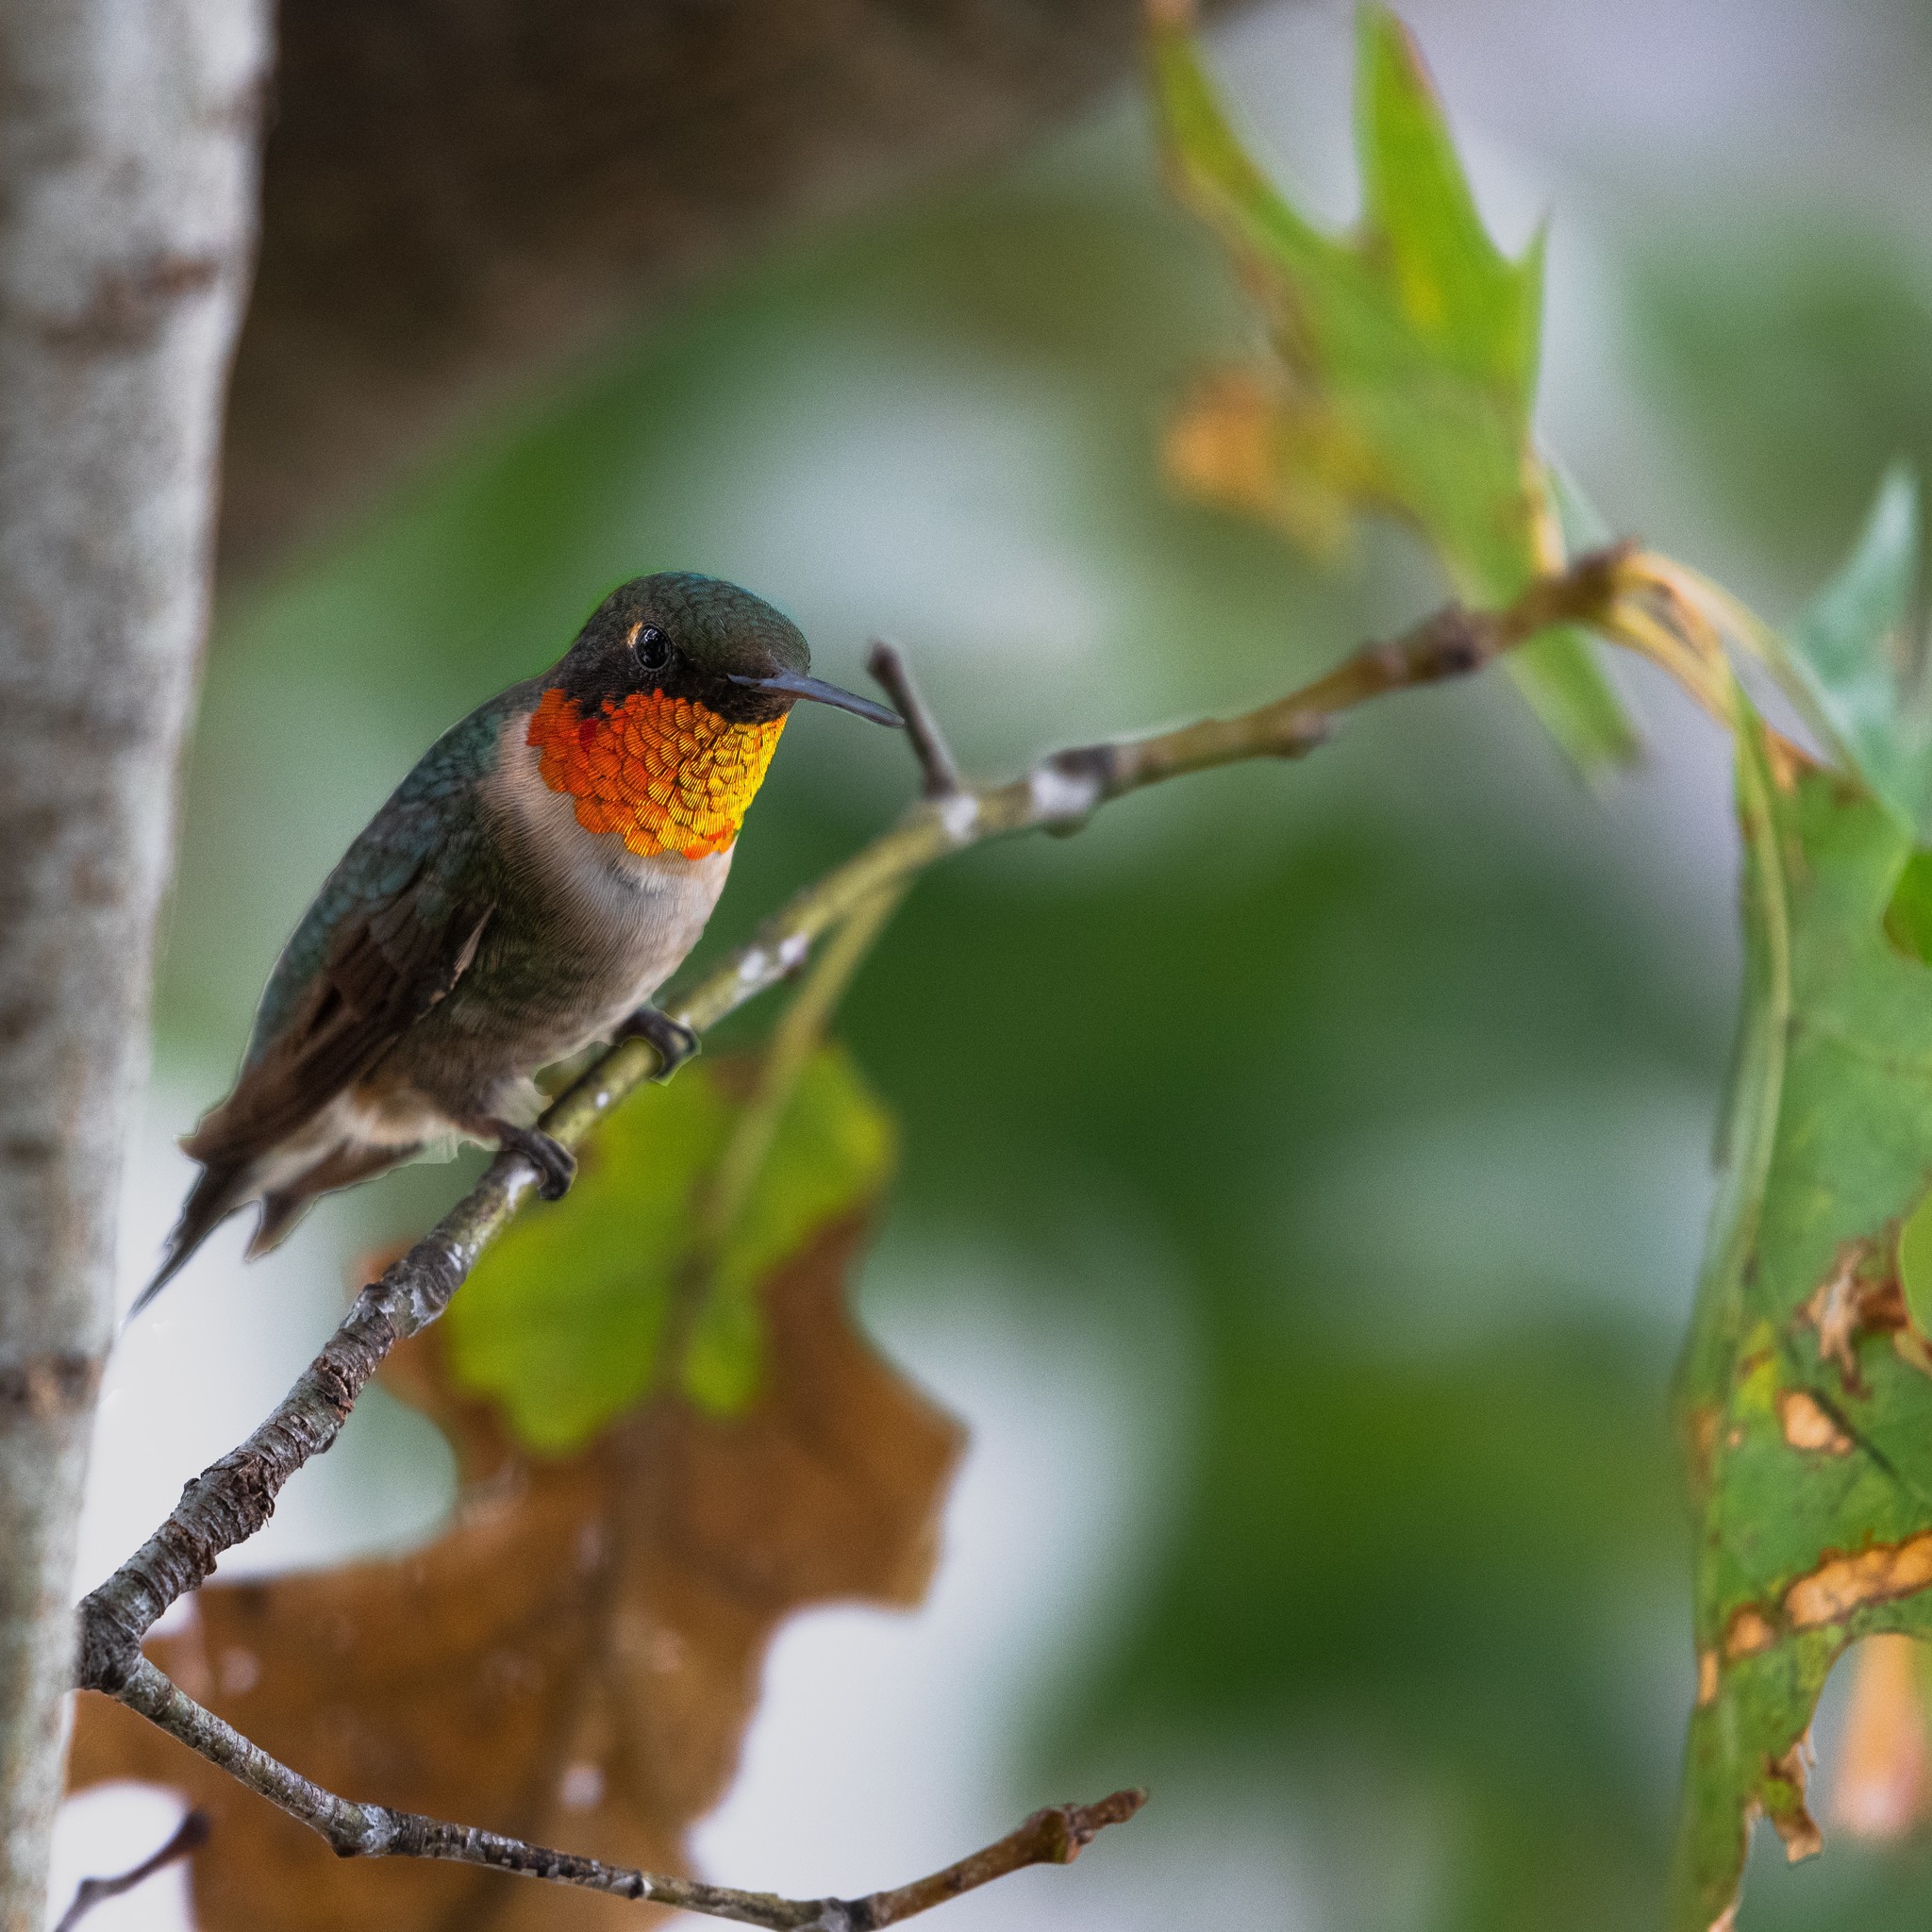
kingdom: Animalia
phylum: Chordata
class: Aves
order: Apodiformes
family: Trochilidae
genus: Archilochus
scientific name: Archilochus colubris
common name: Ruby-throated hummingbird
